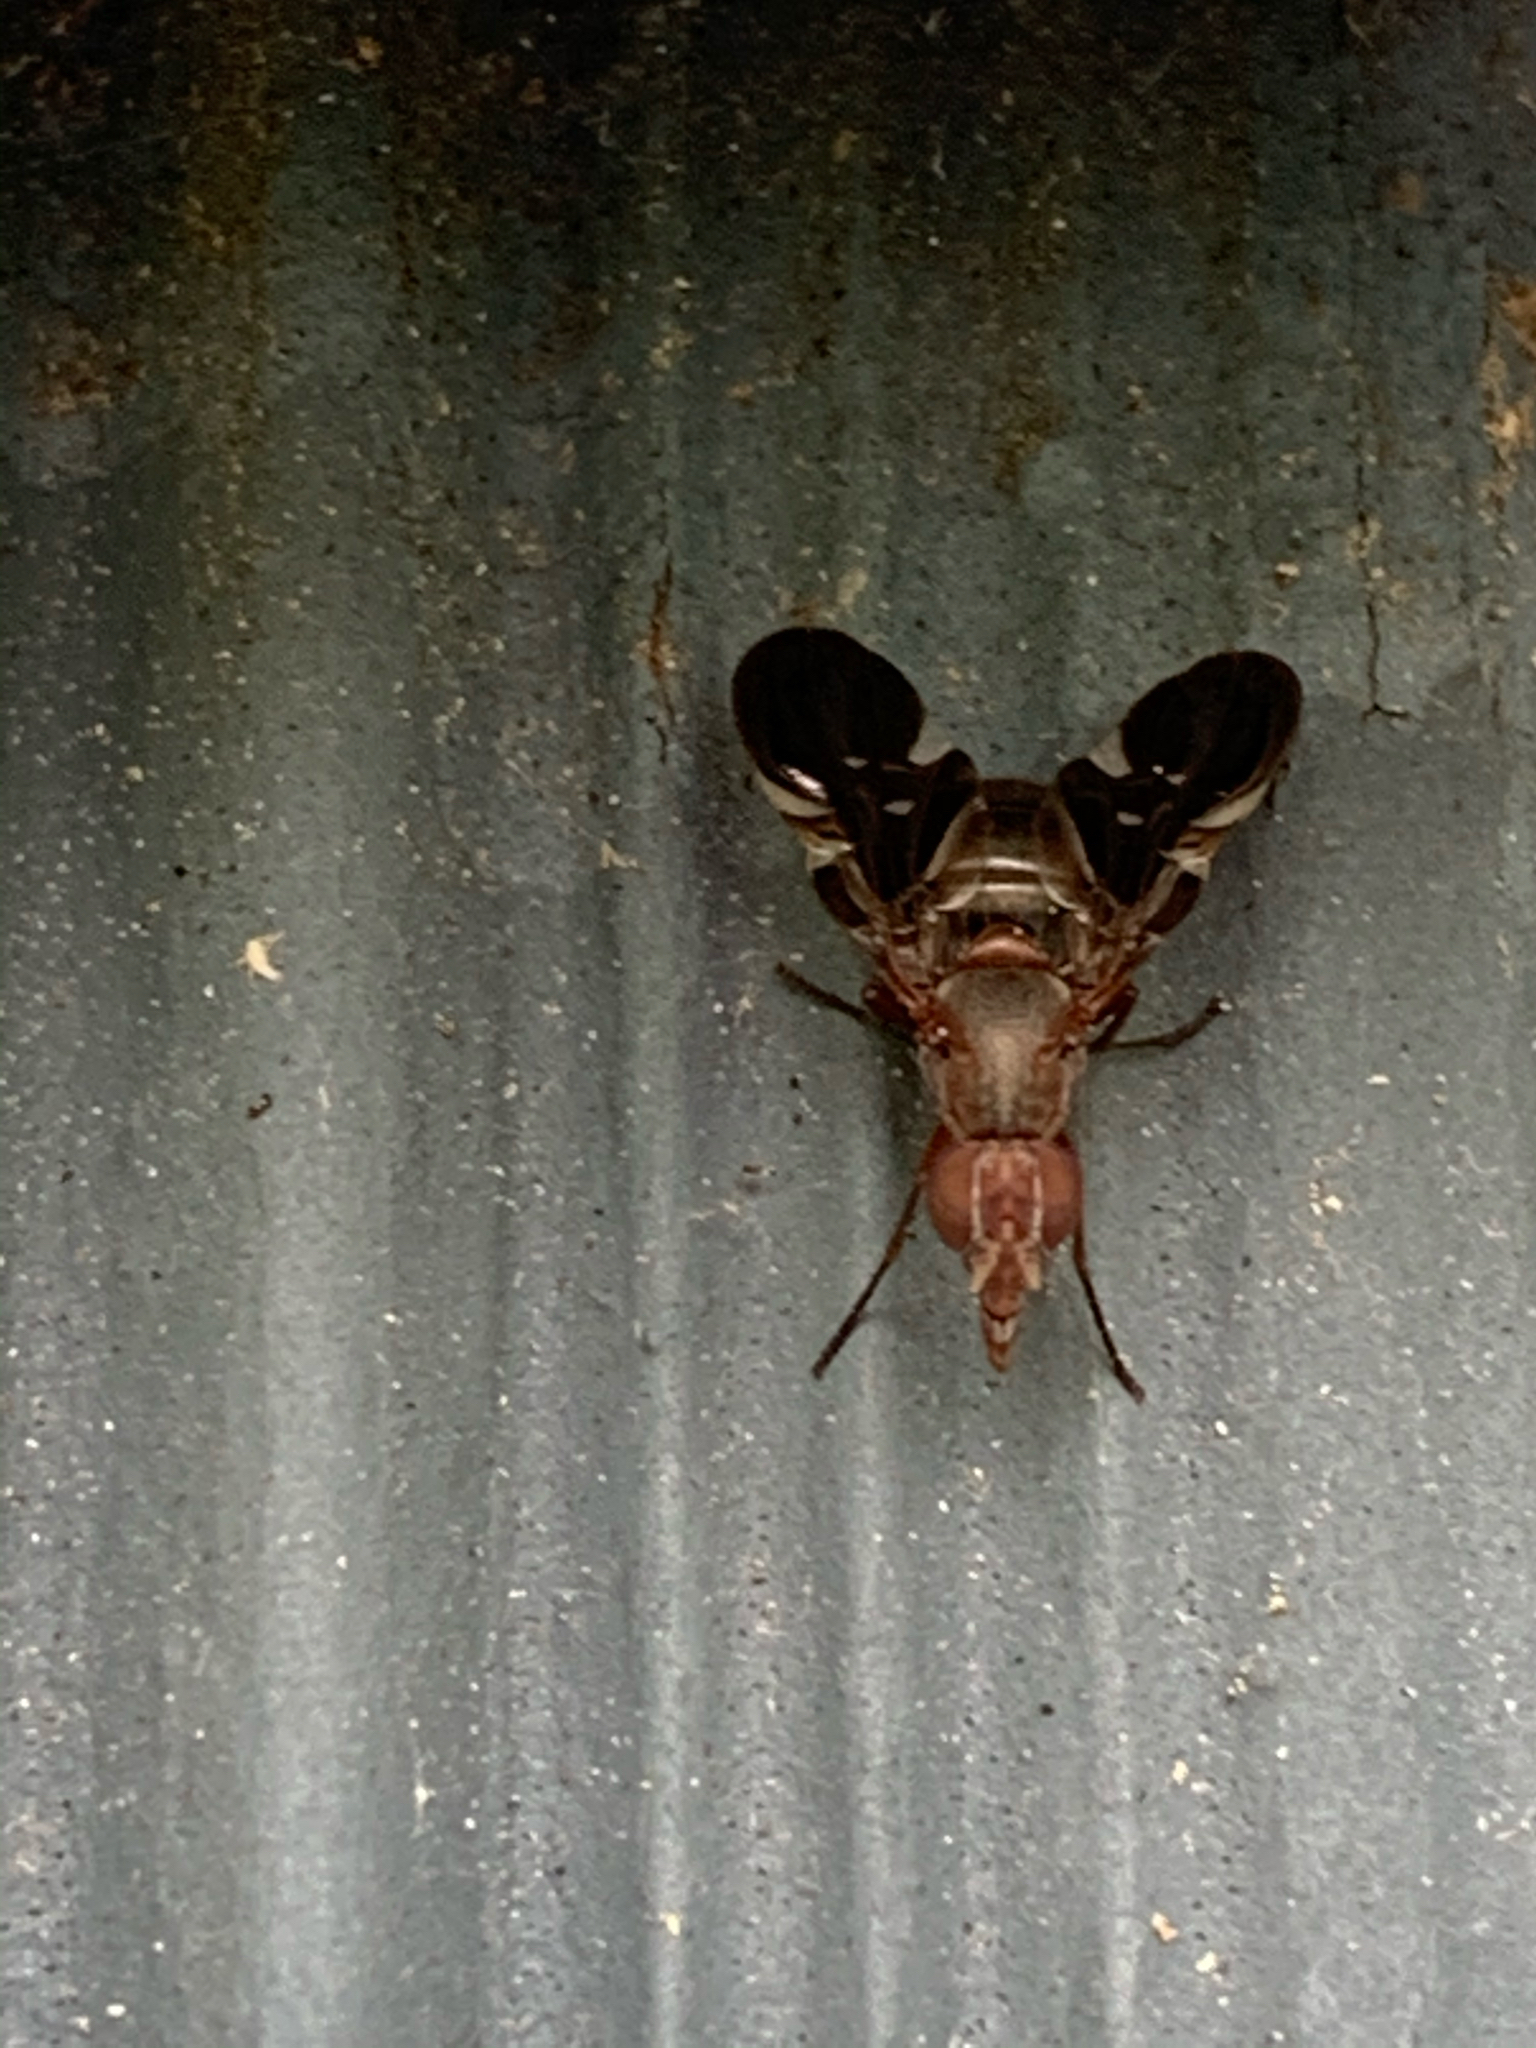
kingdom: Animalia
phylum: Arthropoda
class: Insecta
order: Diptera
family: Ulidiidae
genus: Delphinia
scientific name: Delphinia picta
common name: Common picture-winged fly
